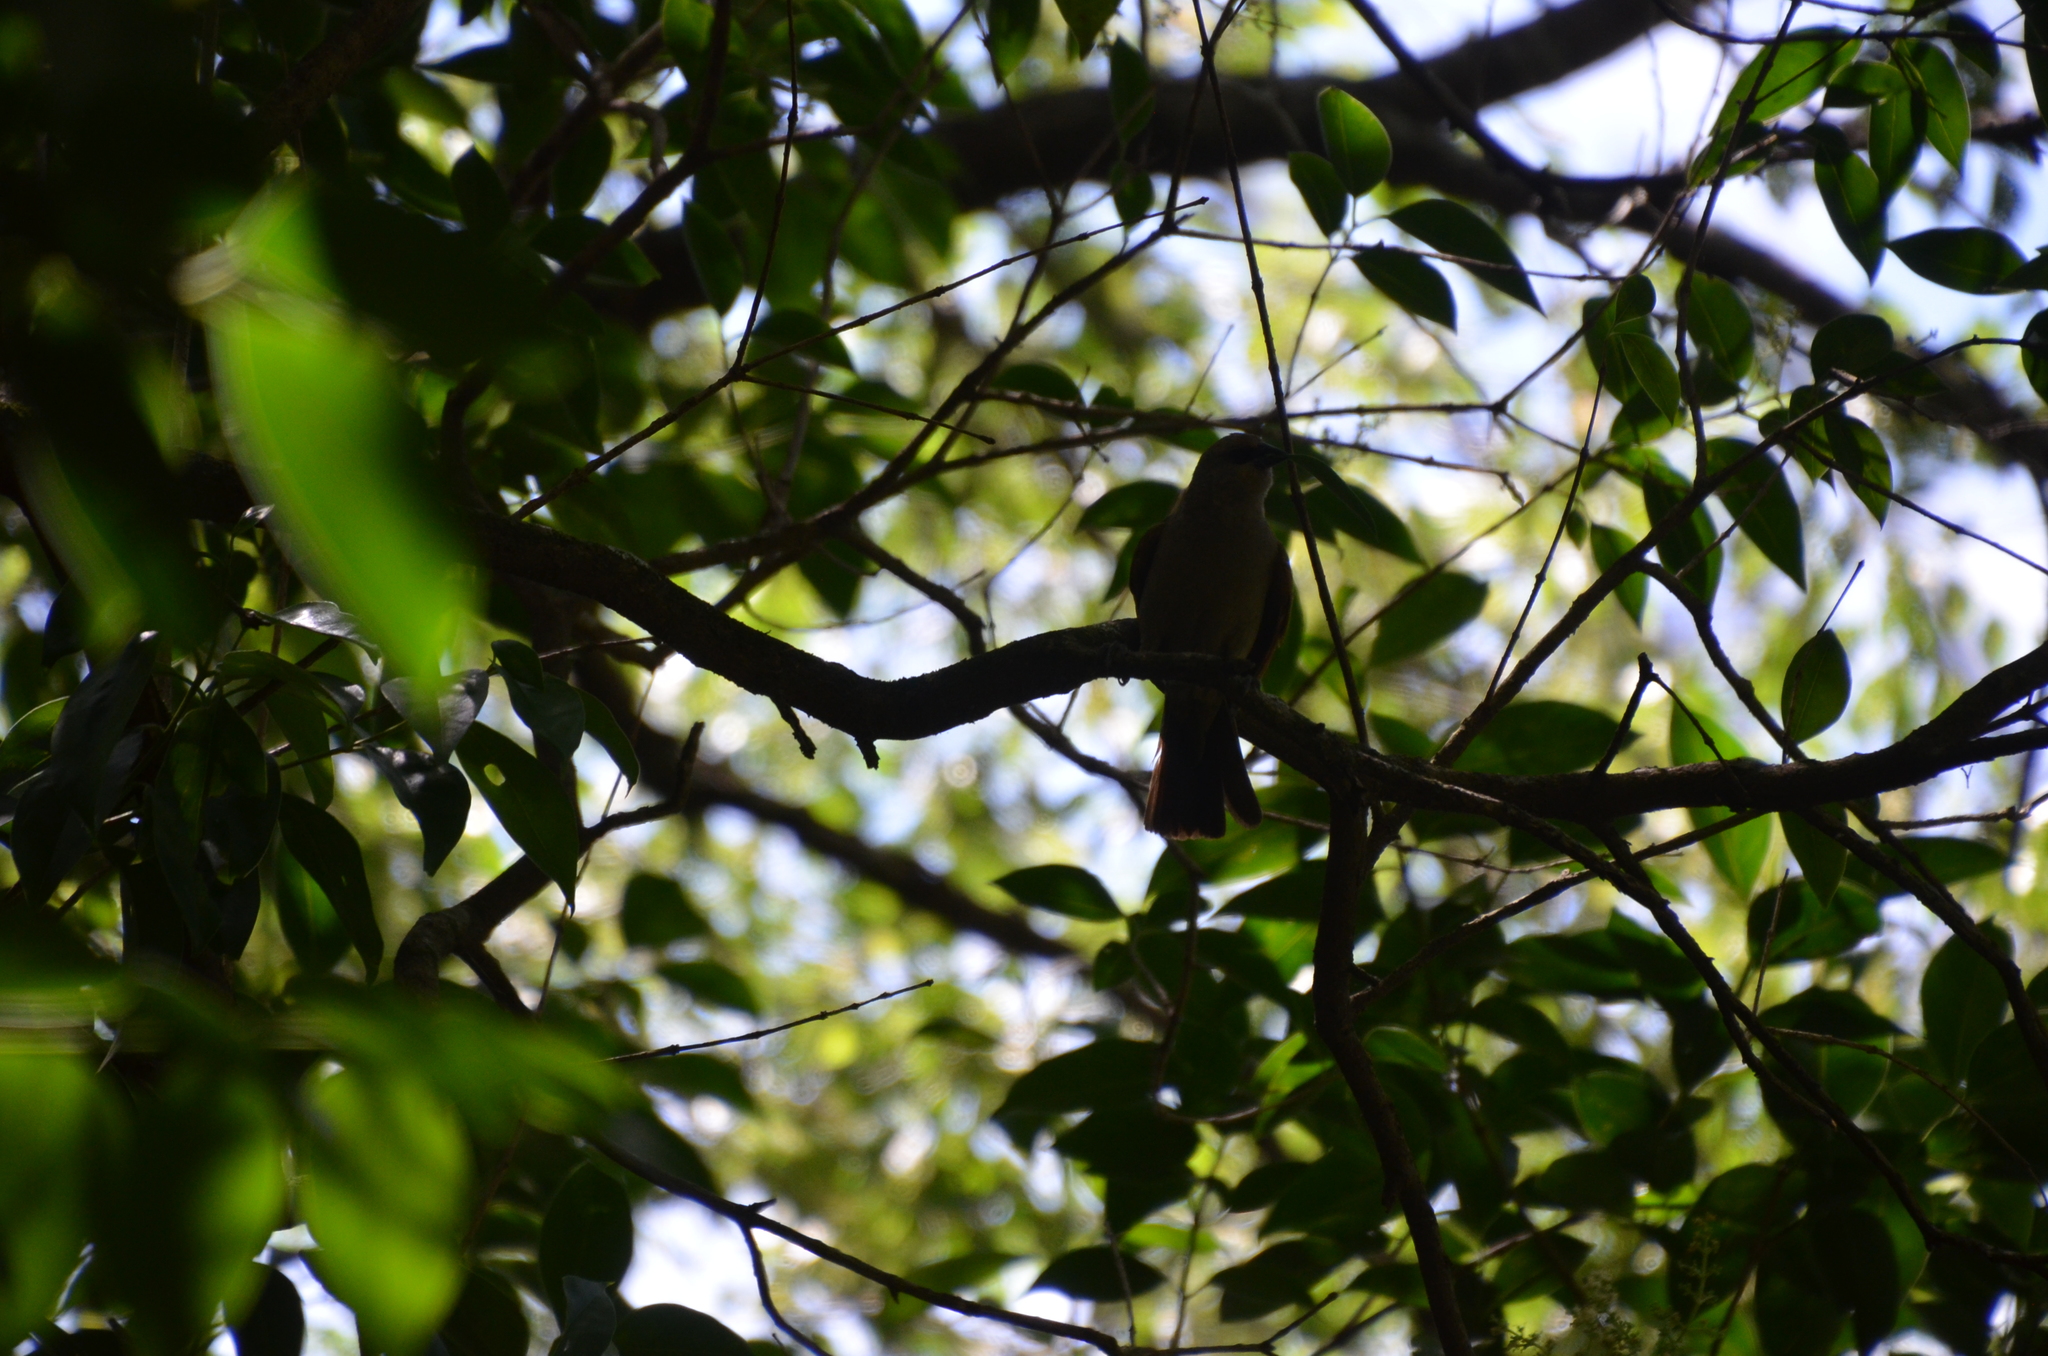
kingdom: Animalia
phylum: Chordata
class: Aves
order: Passeriformes
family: Icteridae
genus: Agelaioides
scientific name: Agelaioides badius
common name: Baywing
